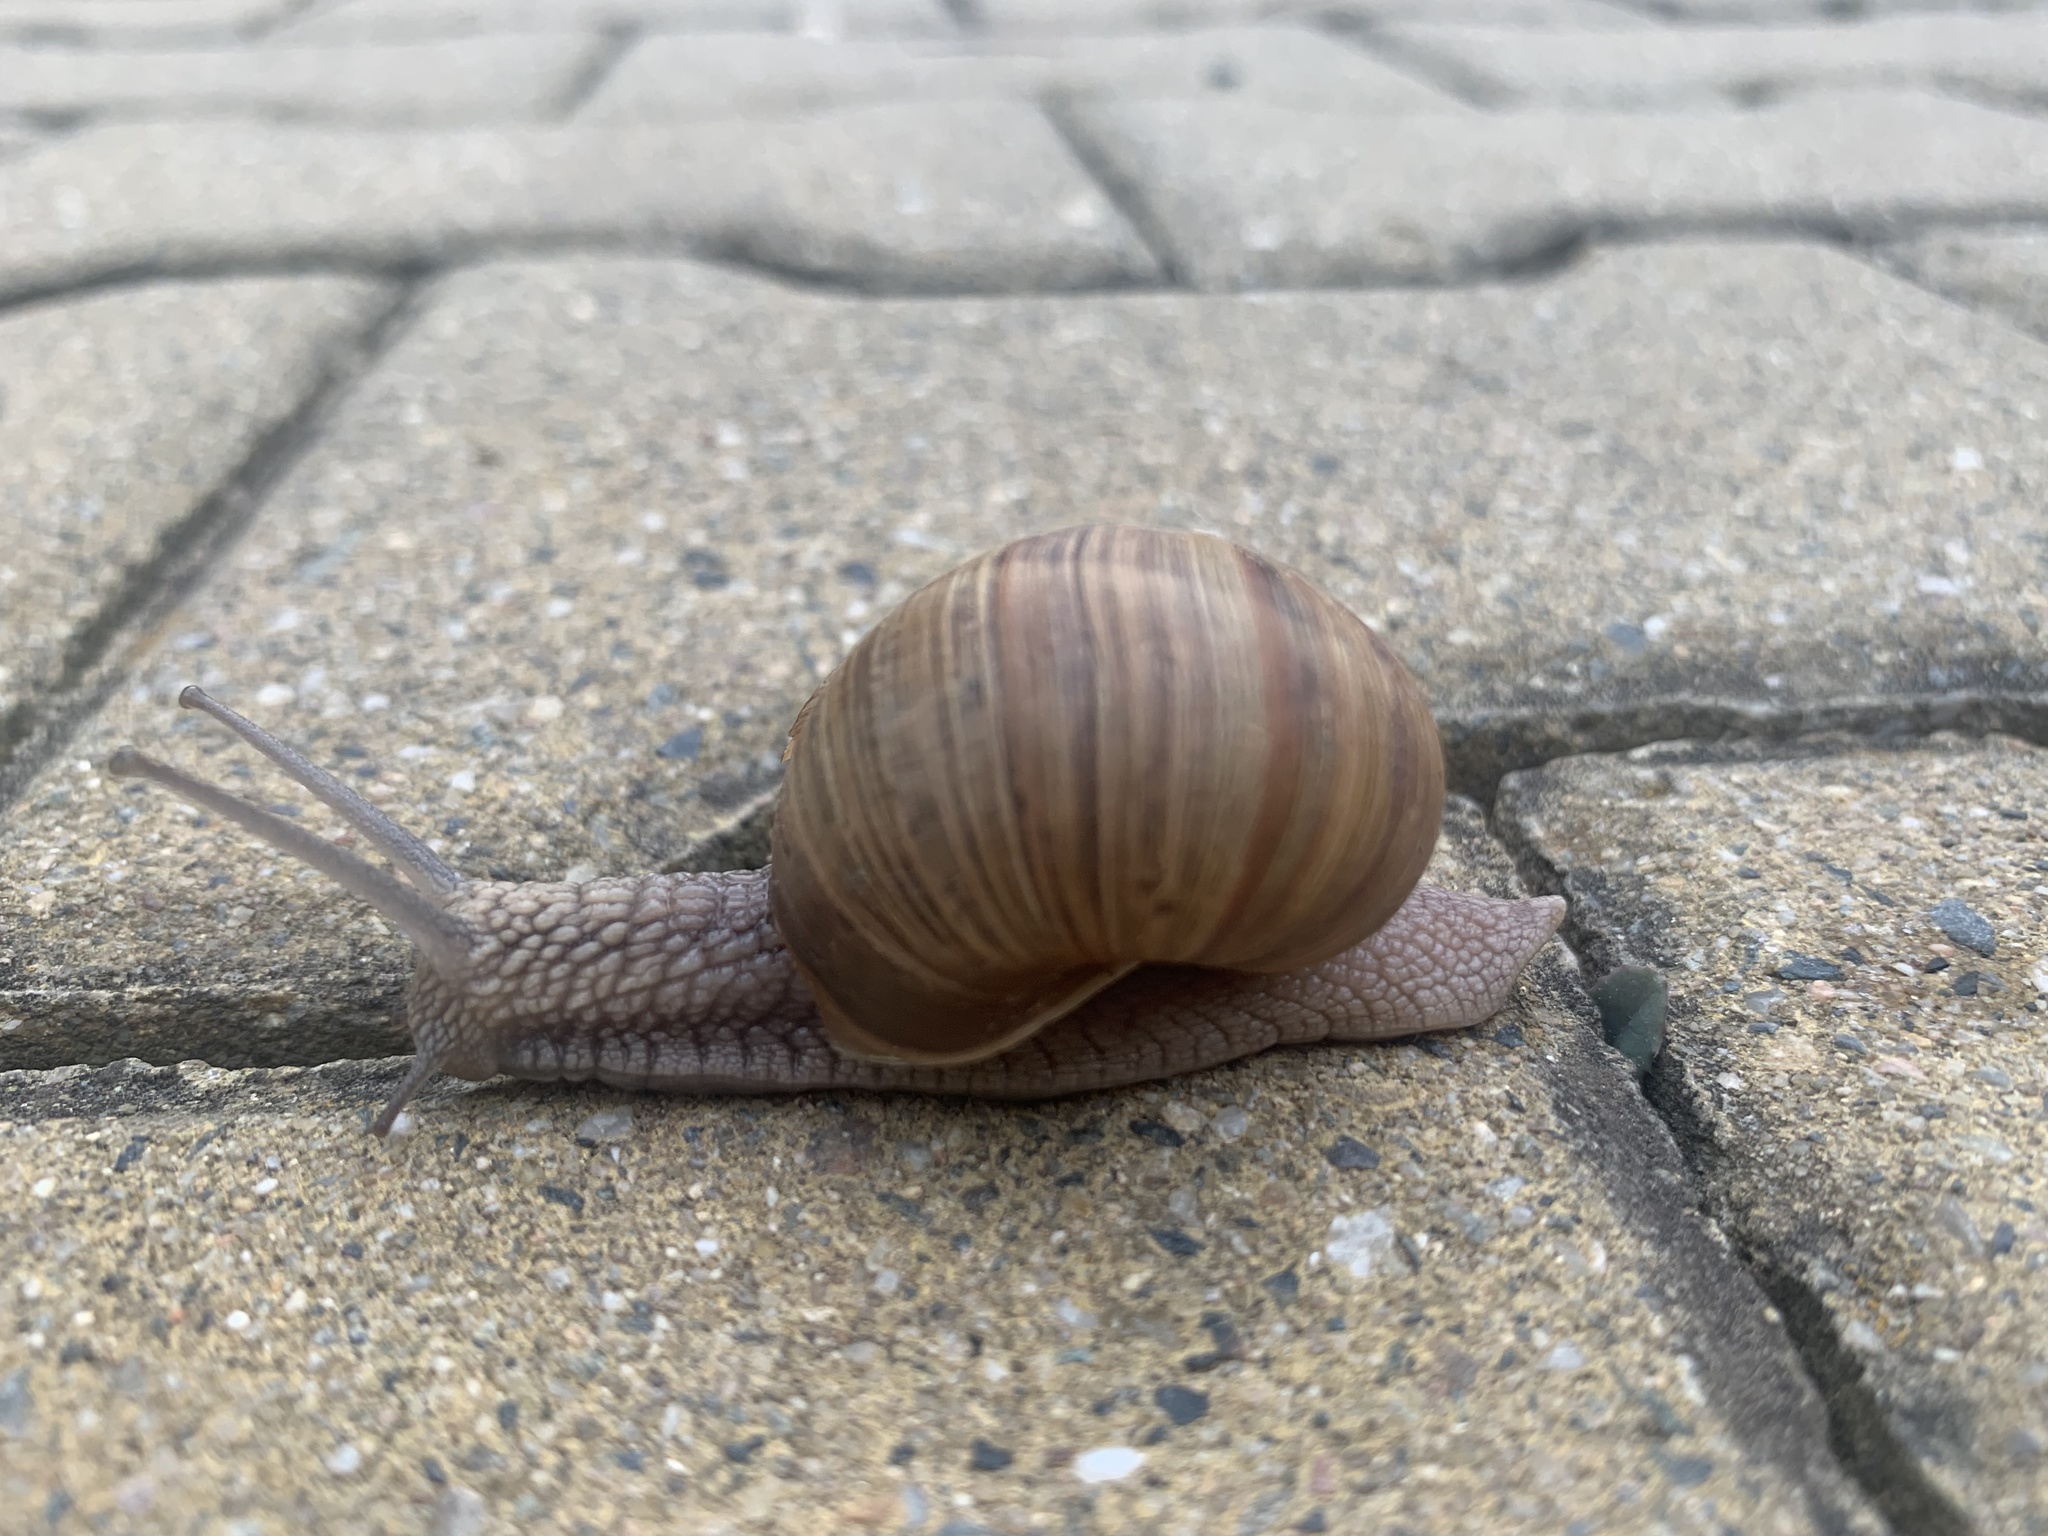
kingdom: Animalia
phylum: Mollusca
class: Gastropoda
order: Stylommatophora
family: Helicidae
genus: Helix
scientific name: Helix pomatia
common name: Roman snail
